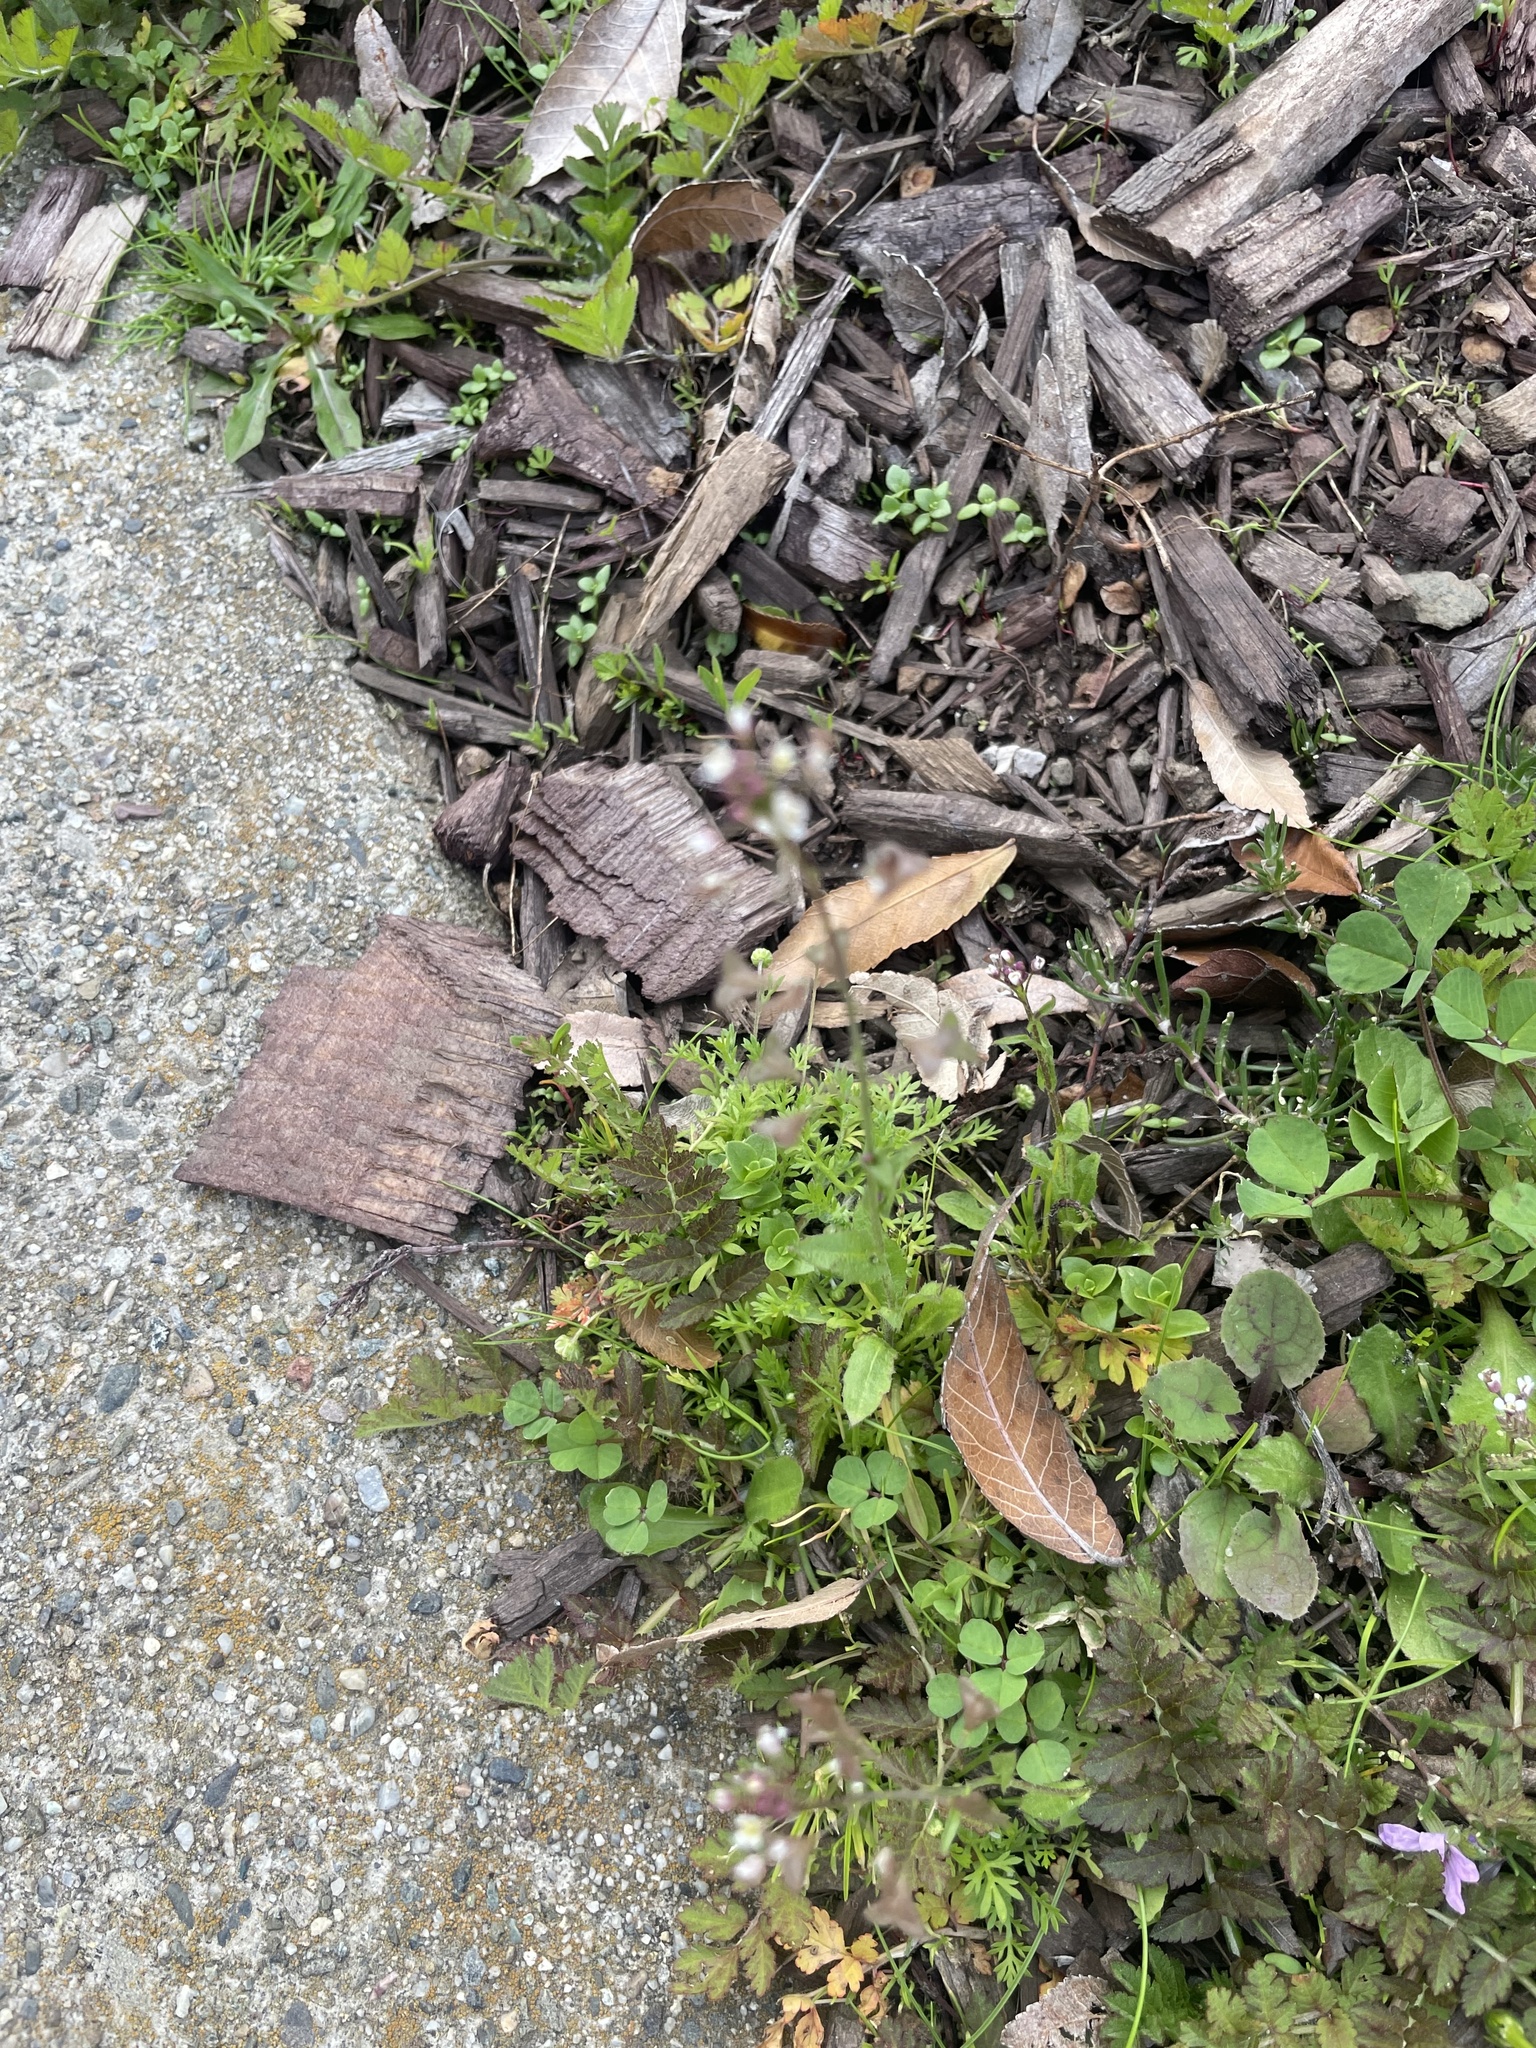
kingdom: Plantae
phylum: Tracheophyta
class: Magnoliopsida
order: Brassicales
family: Brassicaceae
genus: Capsella
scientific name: Capsella bursa-pastoris
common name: Shepherd's purse
